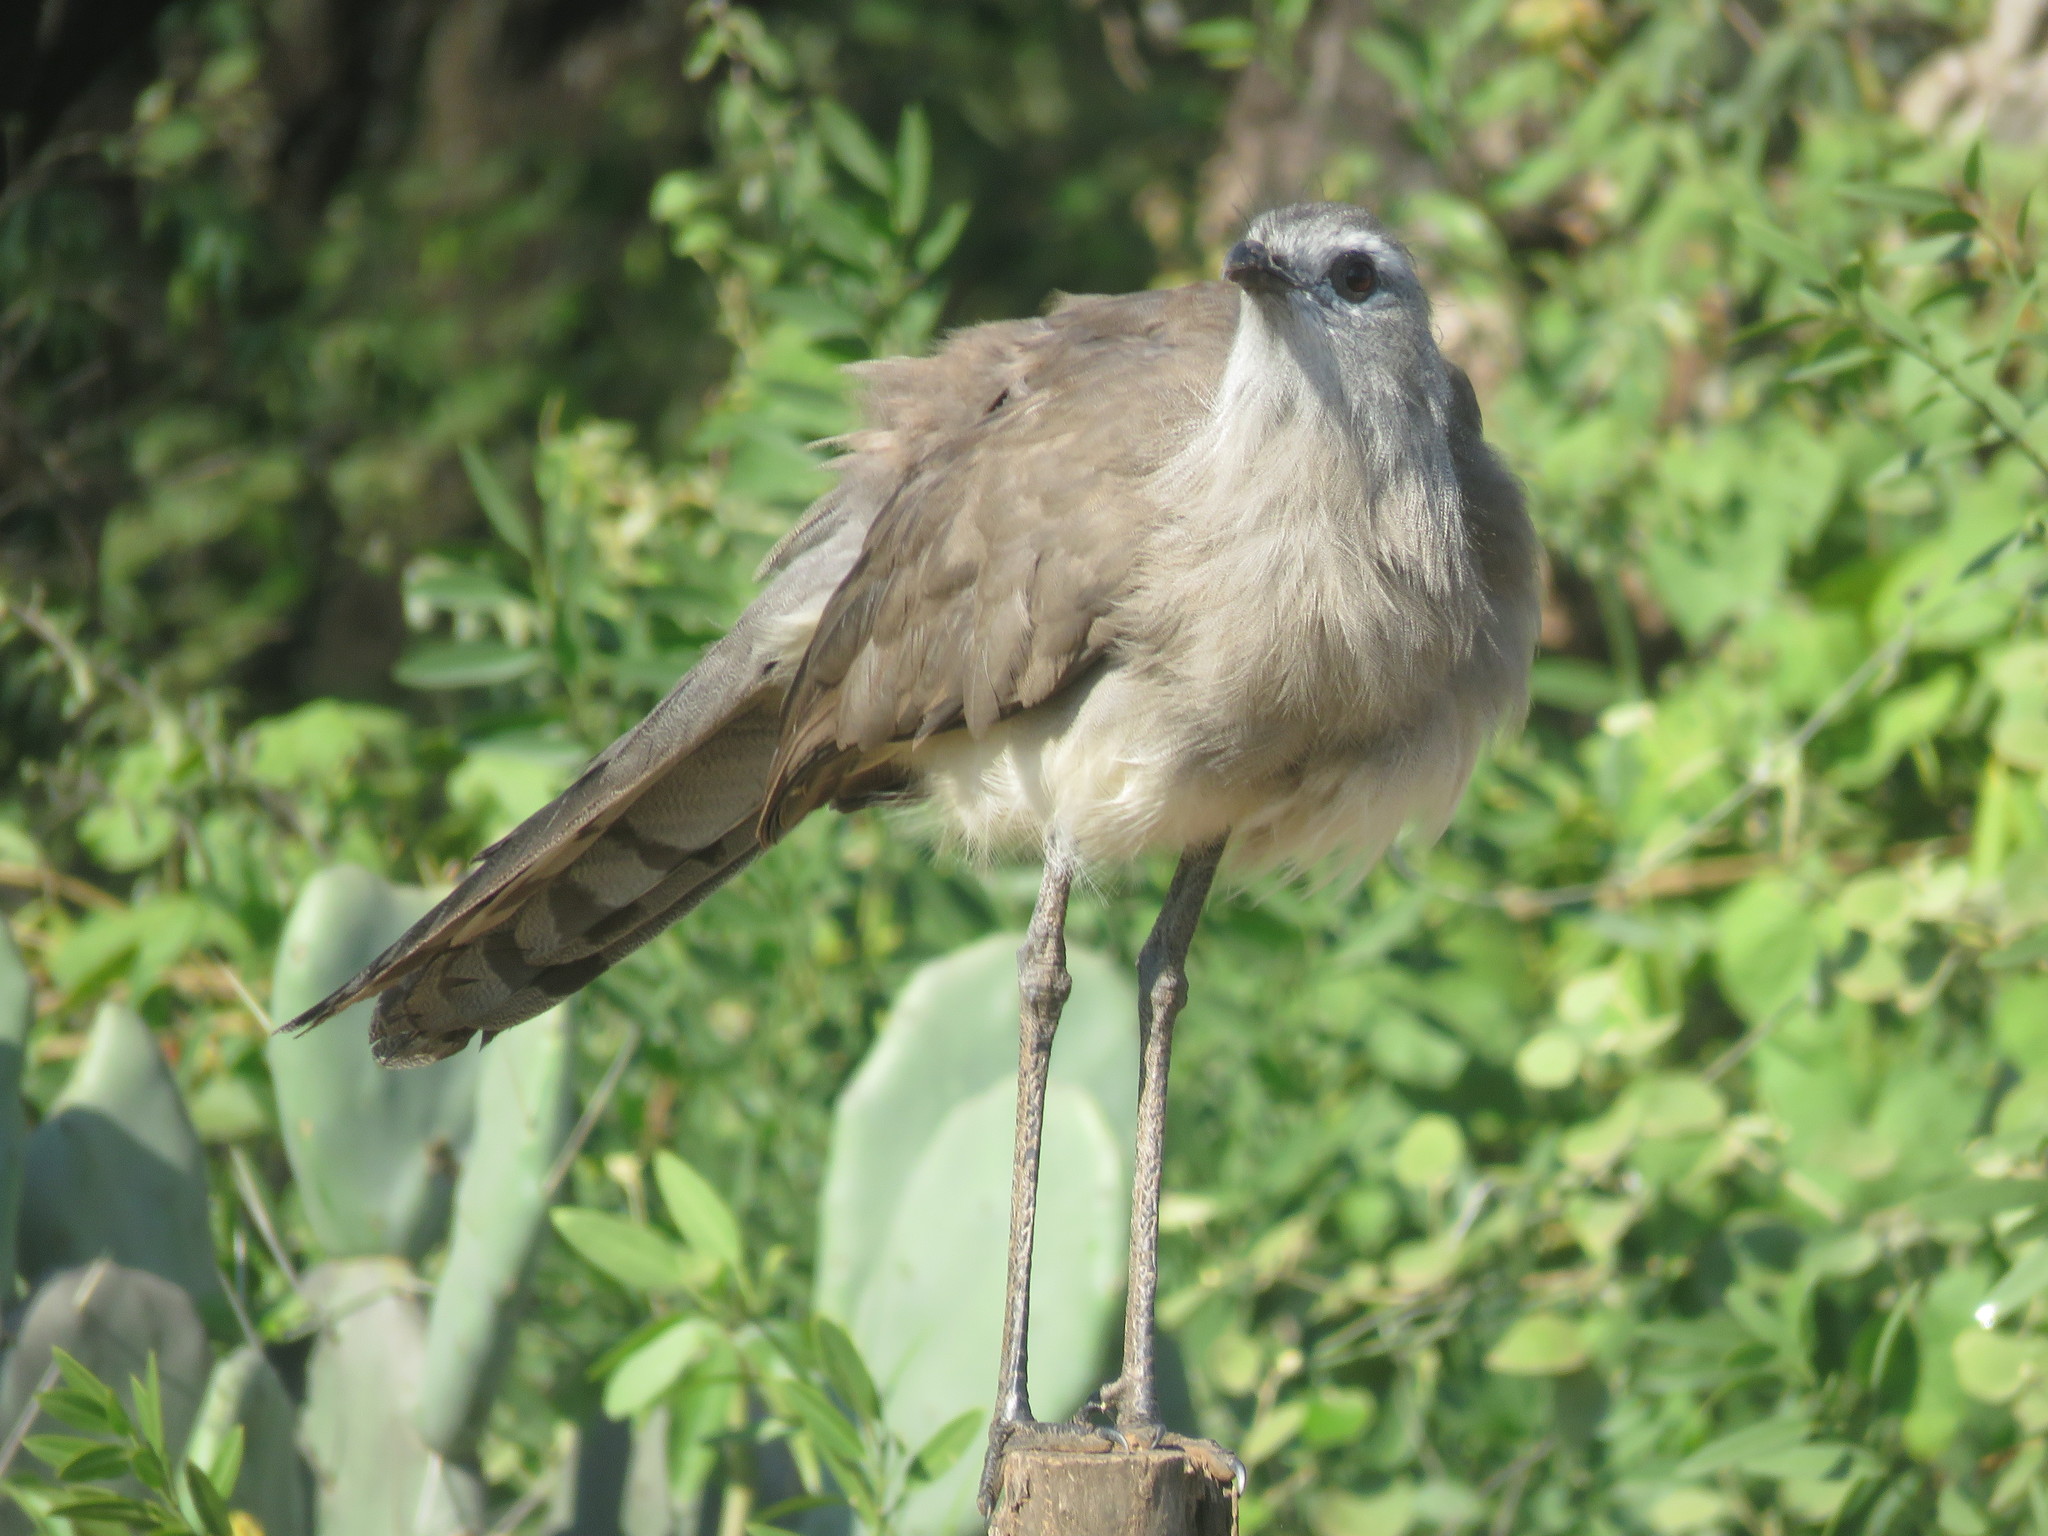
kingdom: Animalia
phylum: Chordata
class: Aves
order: Cariamiformes
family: Cariamidae
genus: Chunga
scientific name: Chunga burmeisteri
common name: Black-legged seriema
